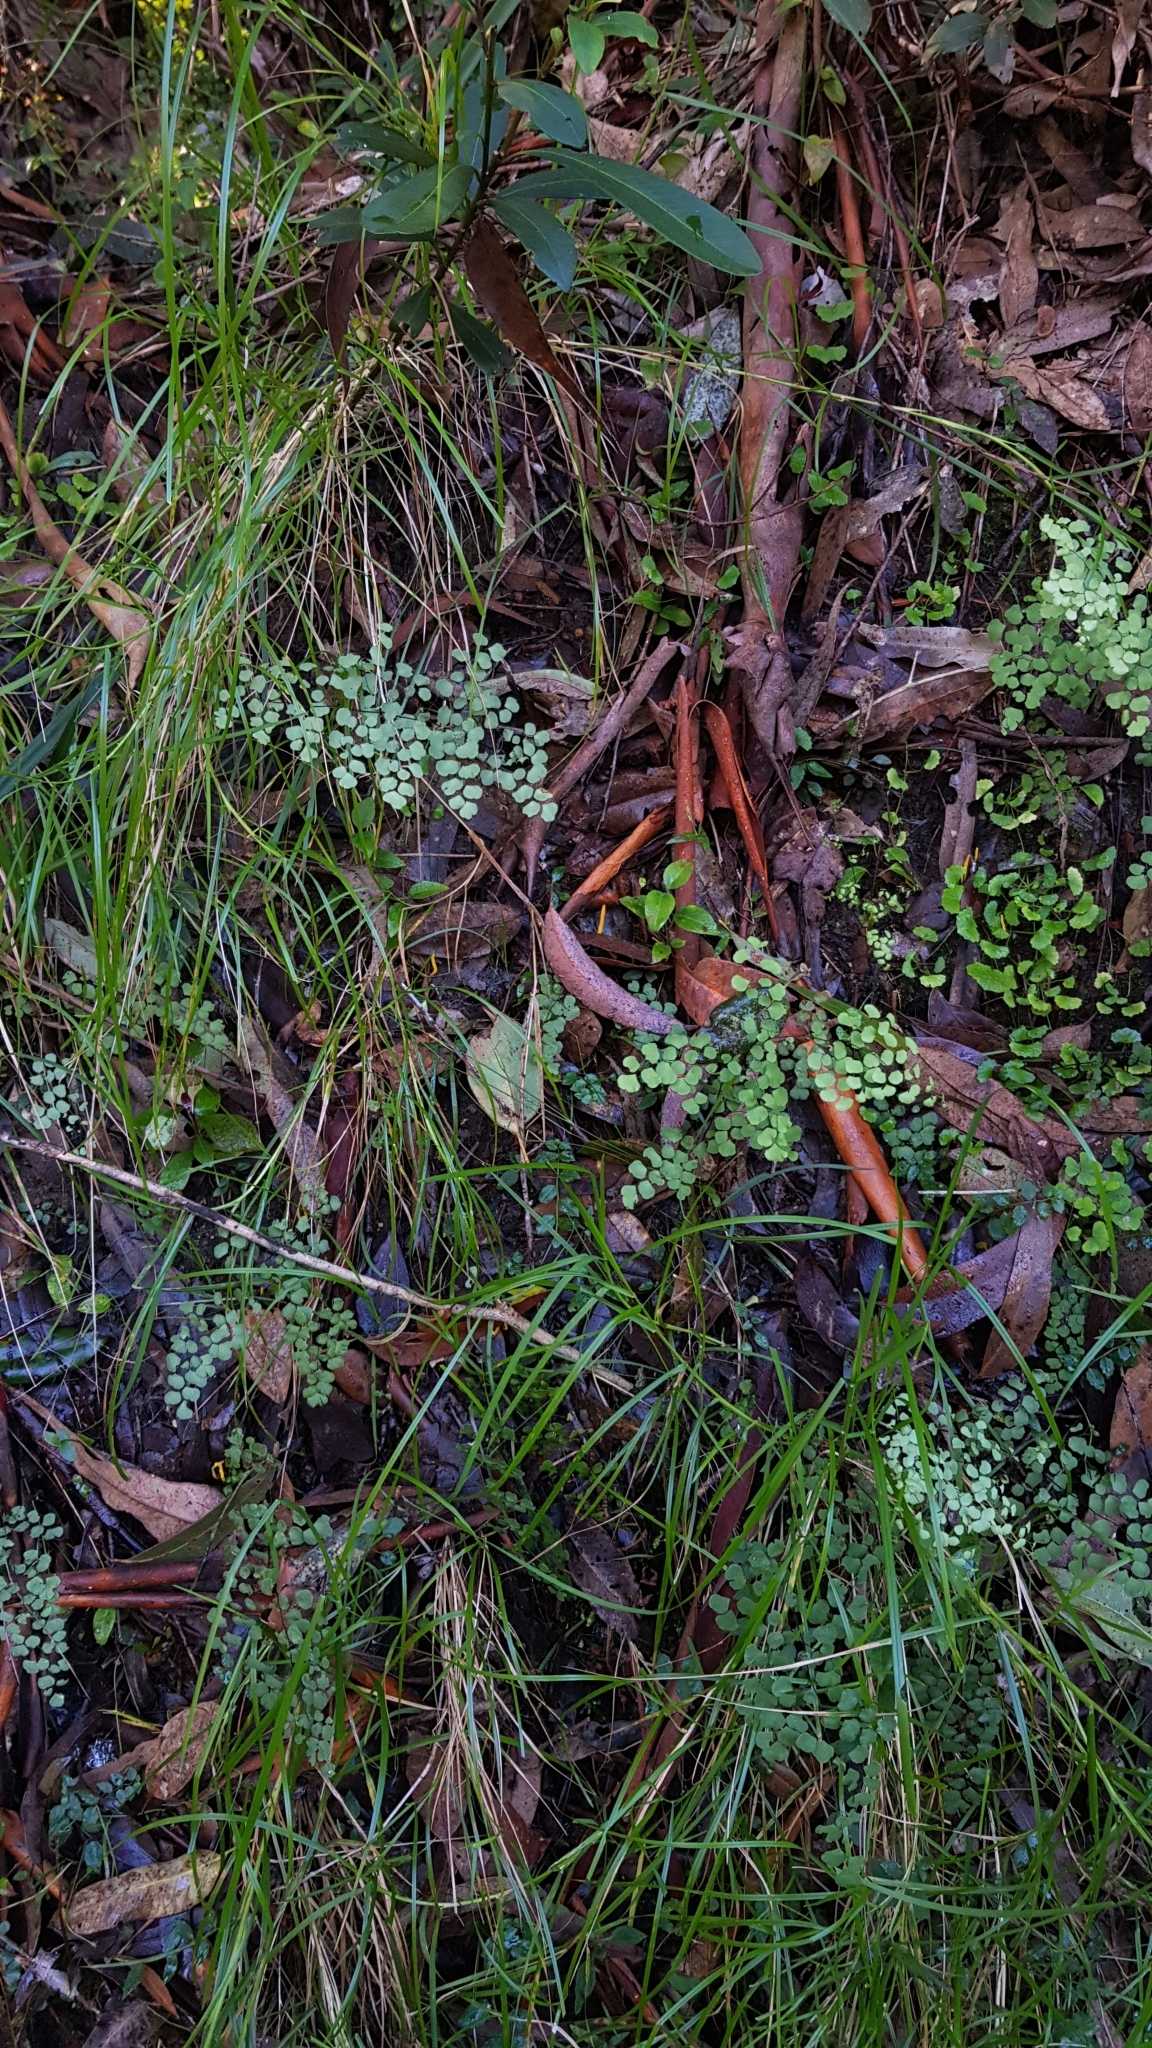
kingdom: Fungi
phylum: Basidiomycota
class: Agaricomycetes
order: Agaricales
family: Clavariaceae
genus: Clavulinopsis
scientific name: Clavulinopsis amoena
